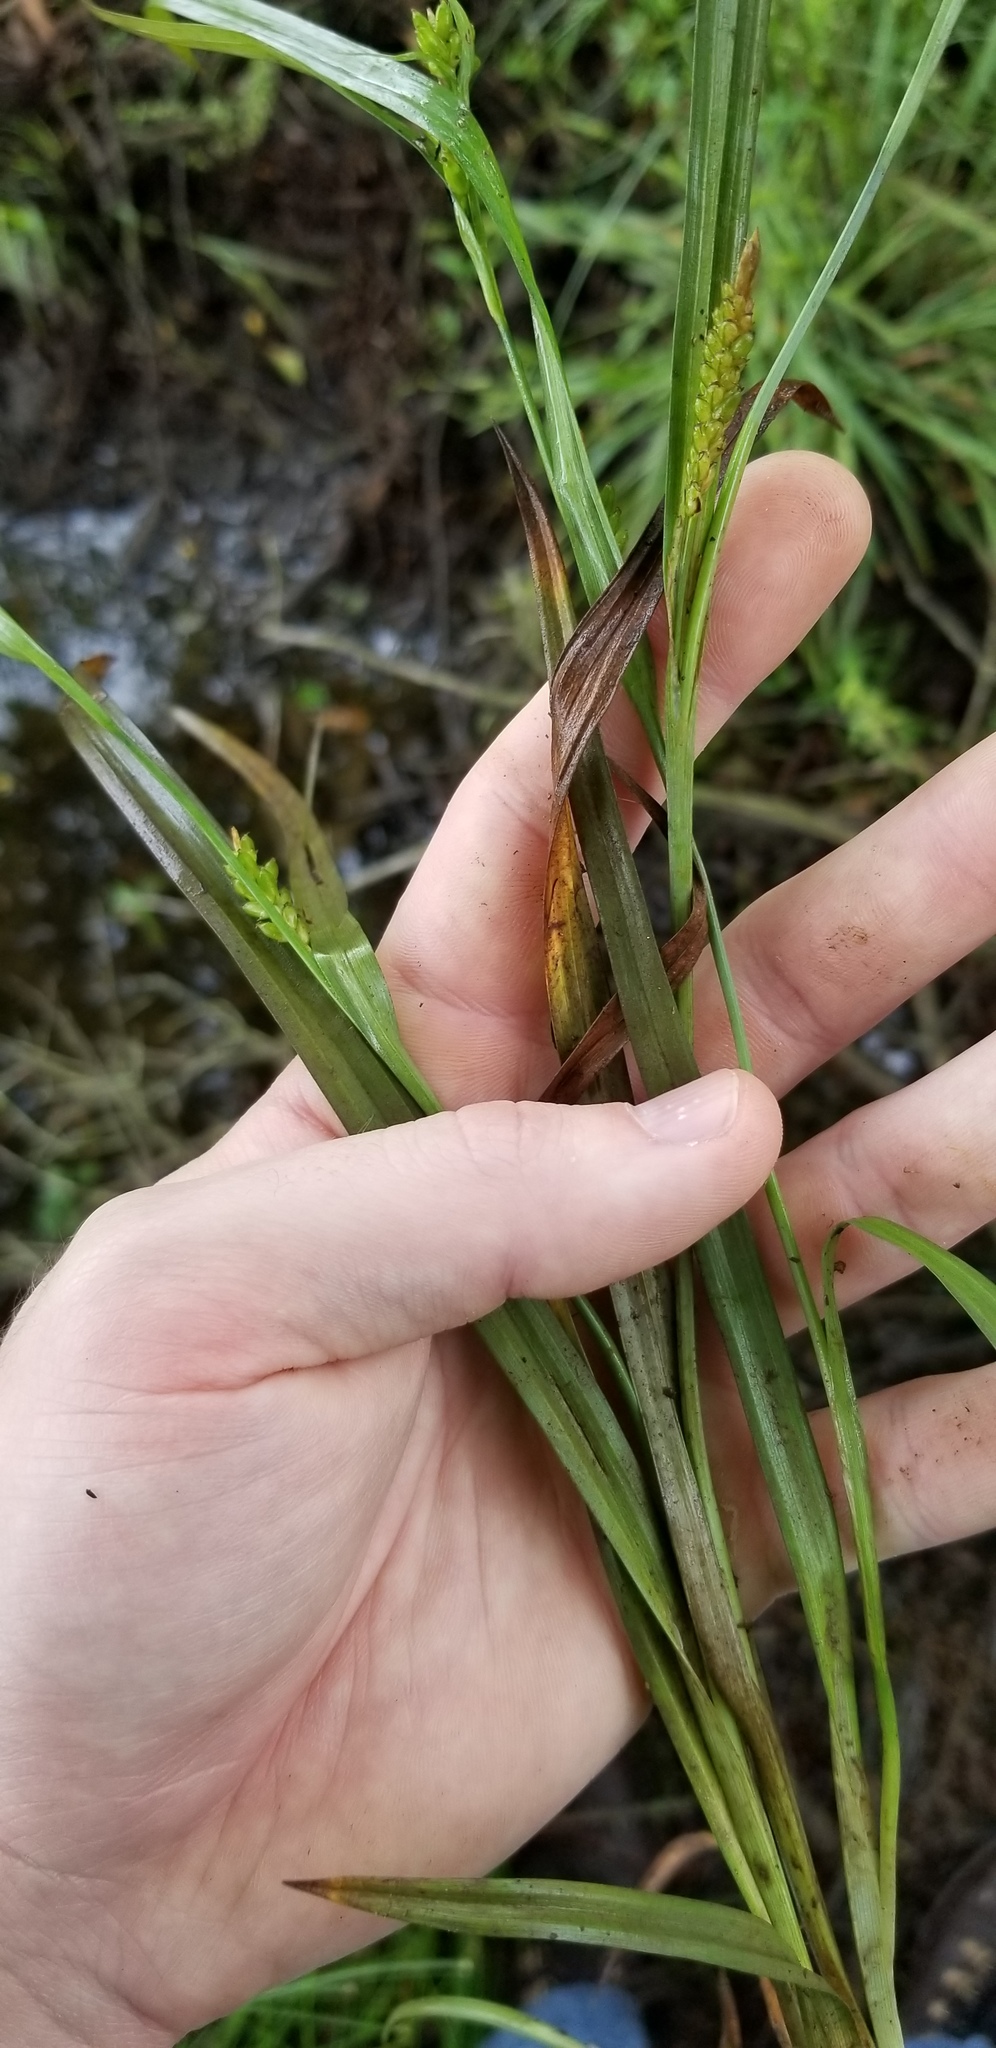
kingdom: Plantae
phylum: Tracheophyta
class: Liliopsida
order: Poales
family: Cyperaceae
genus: Carex
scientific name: Carex glaucodea
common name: Blue sedge
